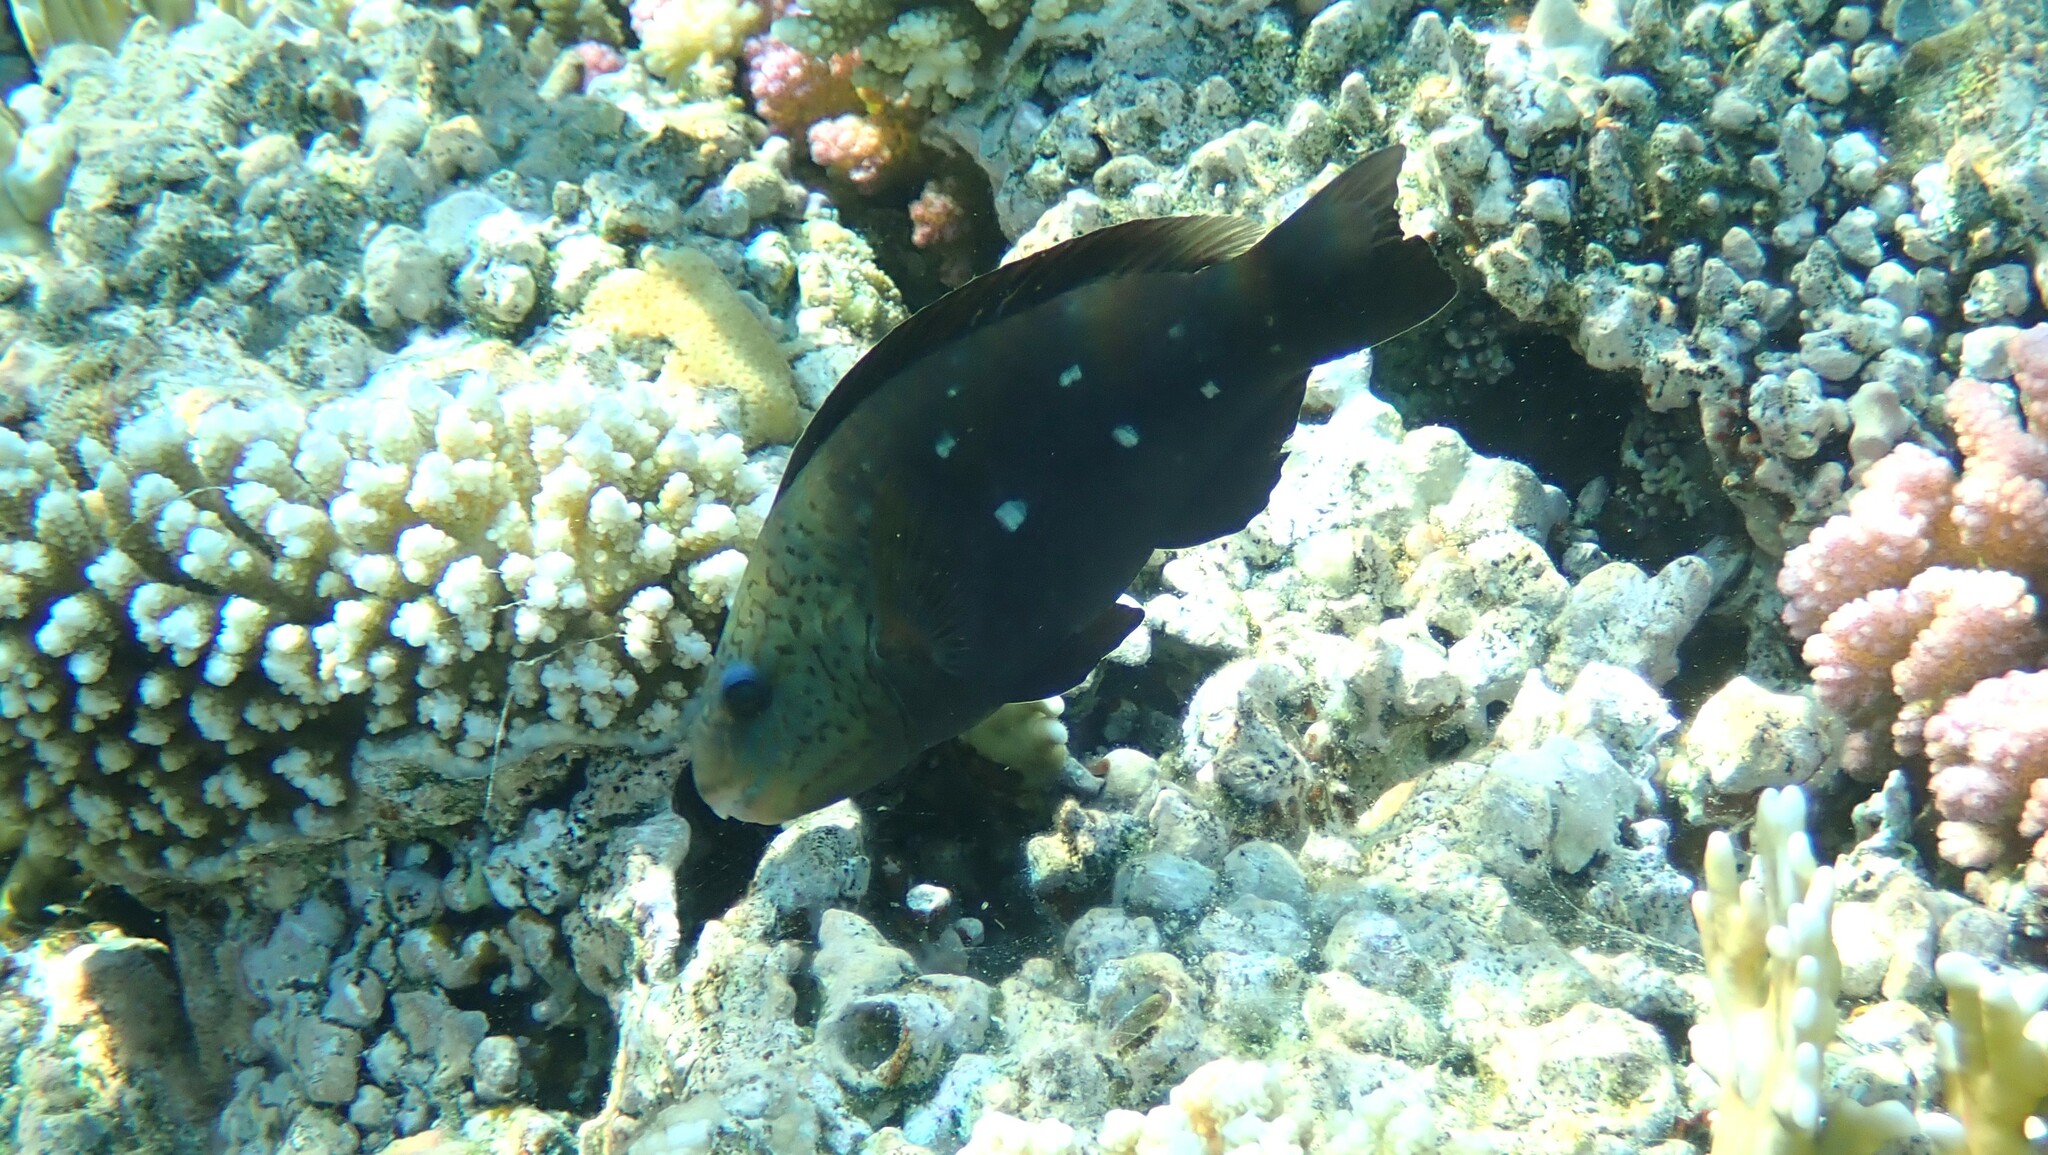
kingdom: Animalia
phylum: Chordata
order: Perciformes
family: Scaridae
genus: Chlorurus
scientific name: Chlorurus sordidus
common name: Bullethead parrotfish
